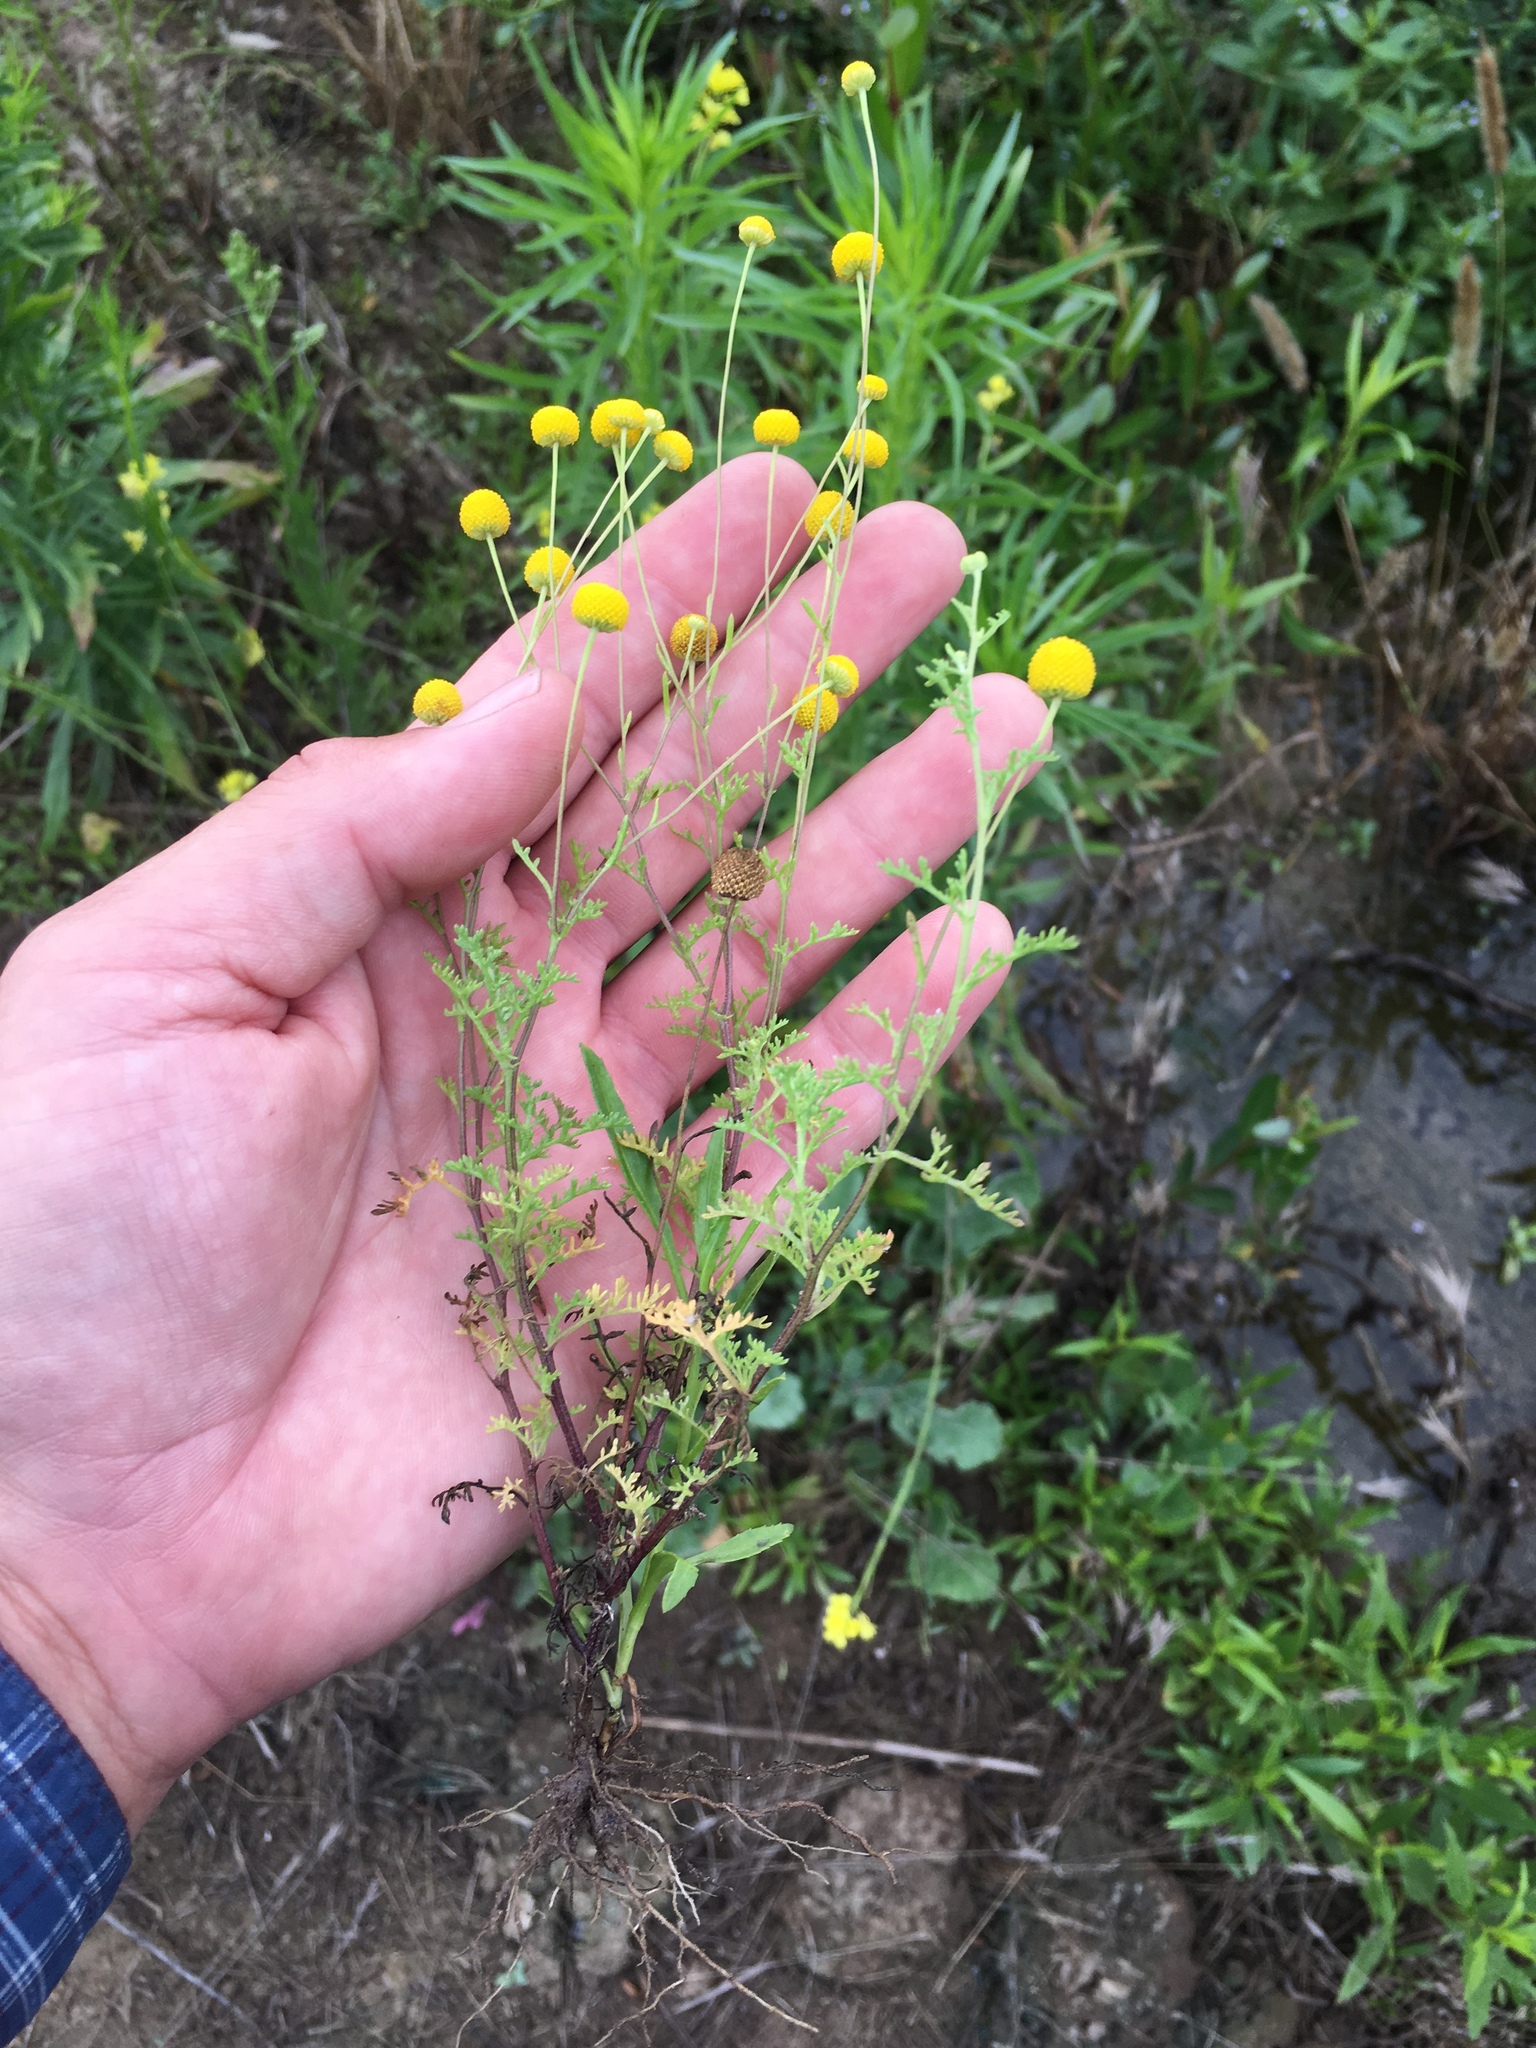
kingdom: Plantae
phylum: Tracheophyta
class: Magnoliopsida
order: Asterales
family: Asteraceae
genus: Oncosiphon
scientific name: Oncosiphon pilulifer
